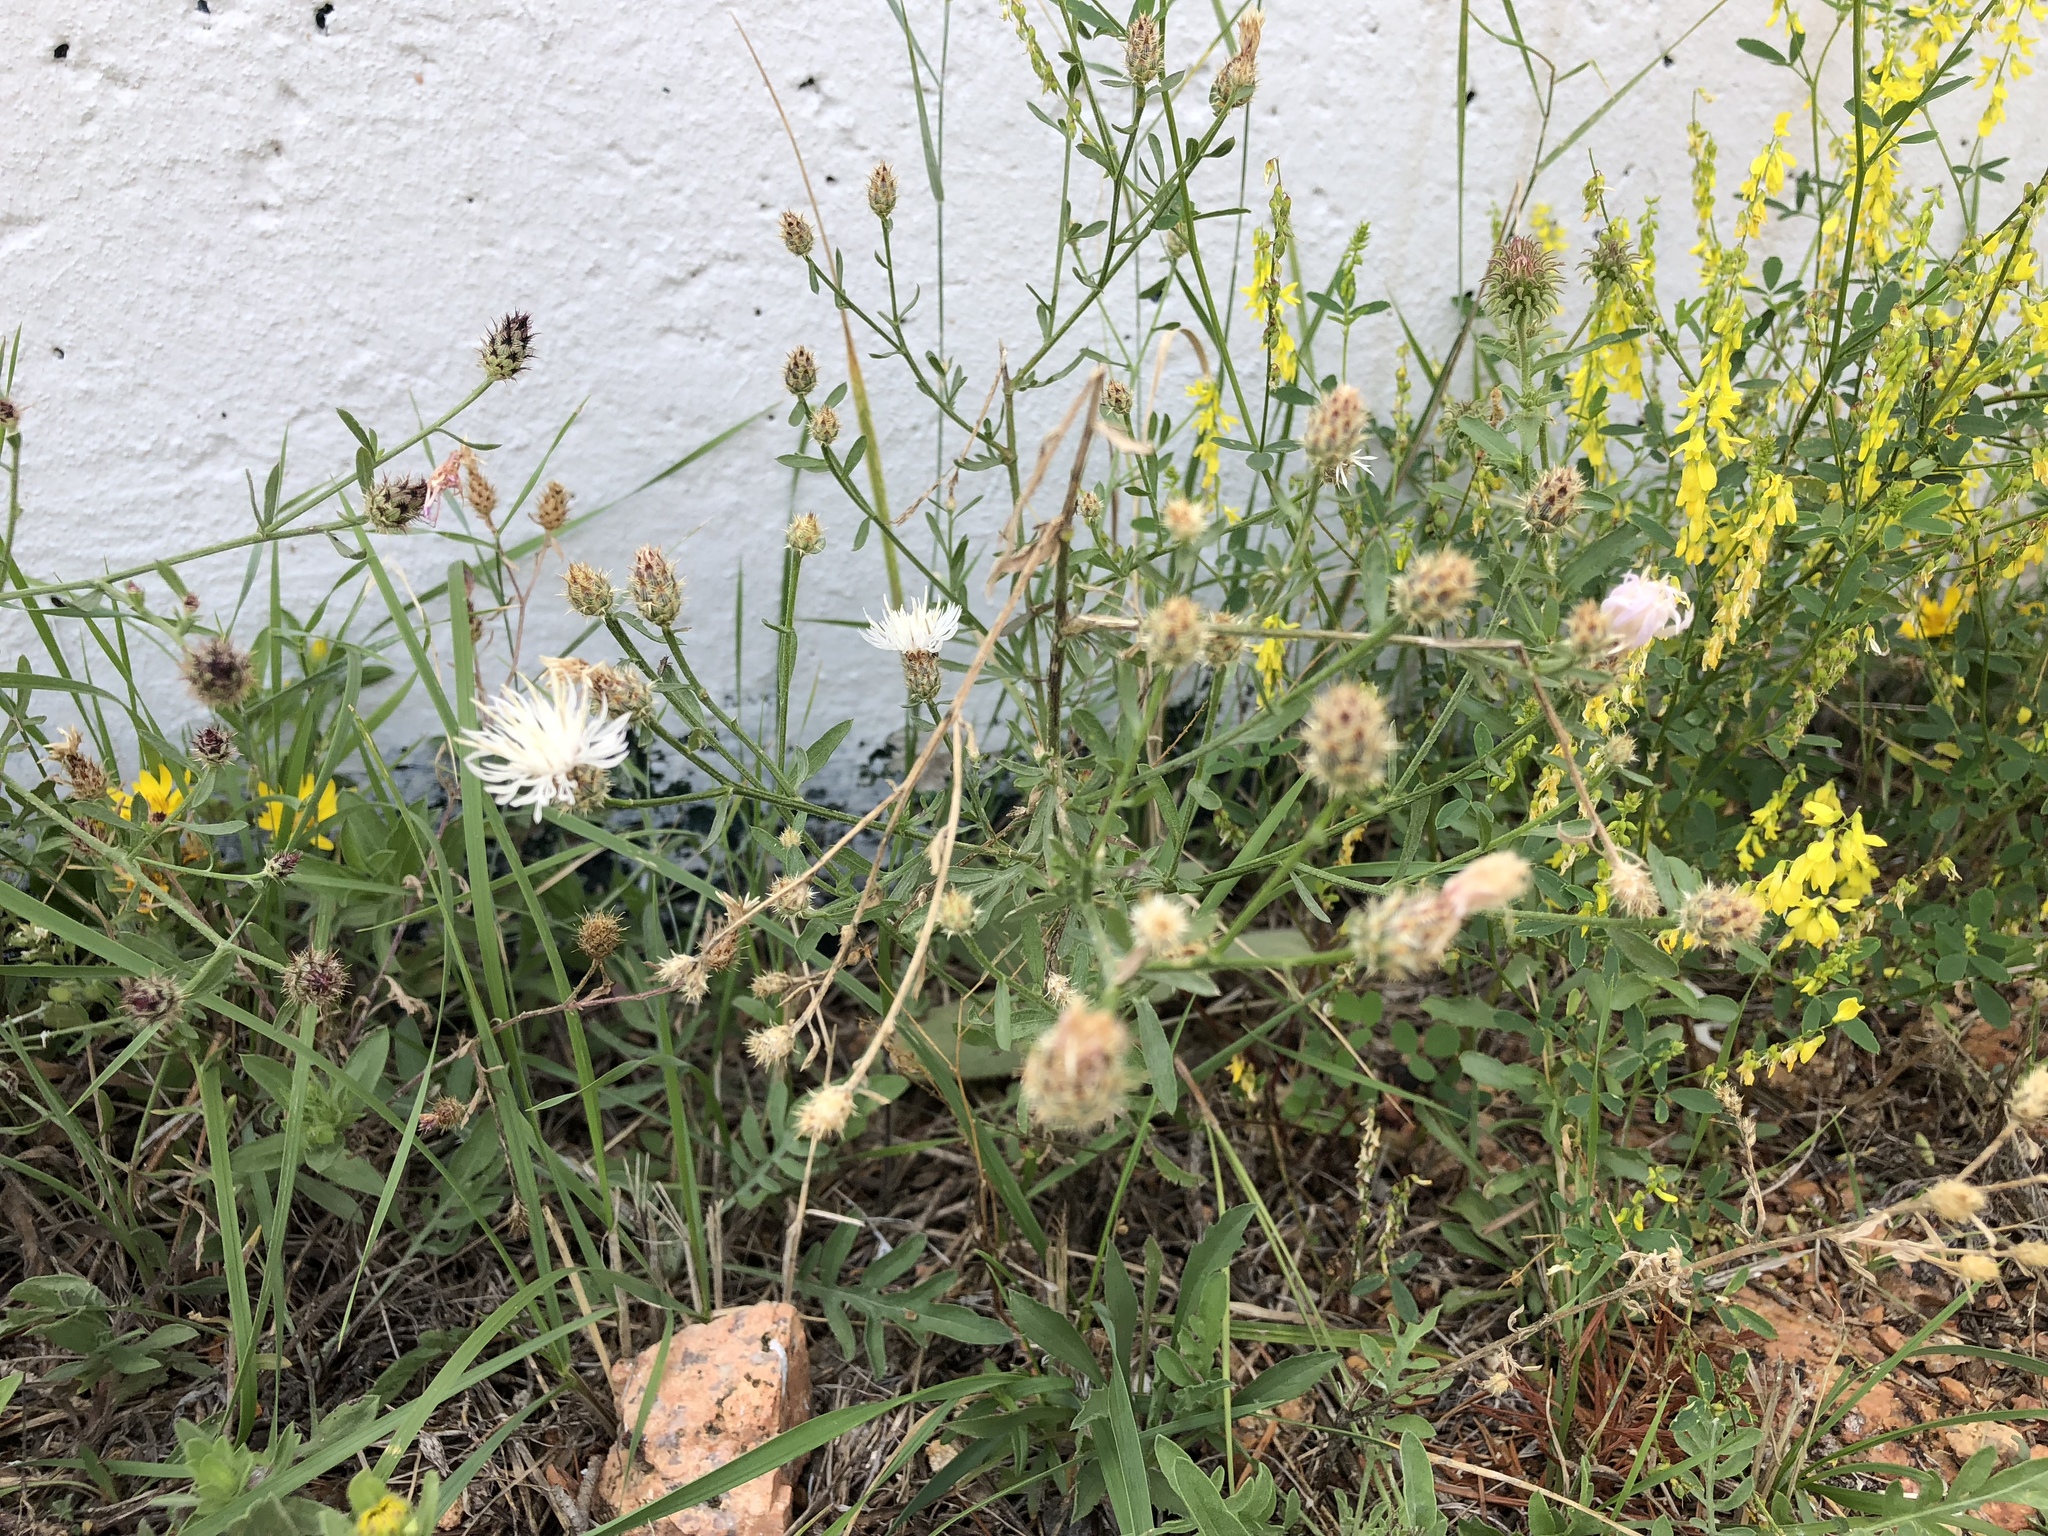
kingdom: Plantae
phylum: Tracheophyta
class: Magnoliopsida
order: Asterales
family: Asteraceae
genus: Centaurea
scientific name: Centaurea psammogena
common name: Diffuse-spotted knapweed hybrid
